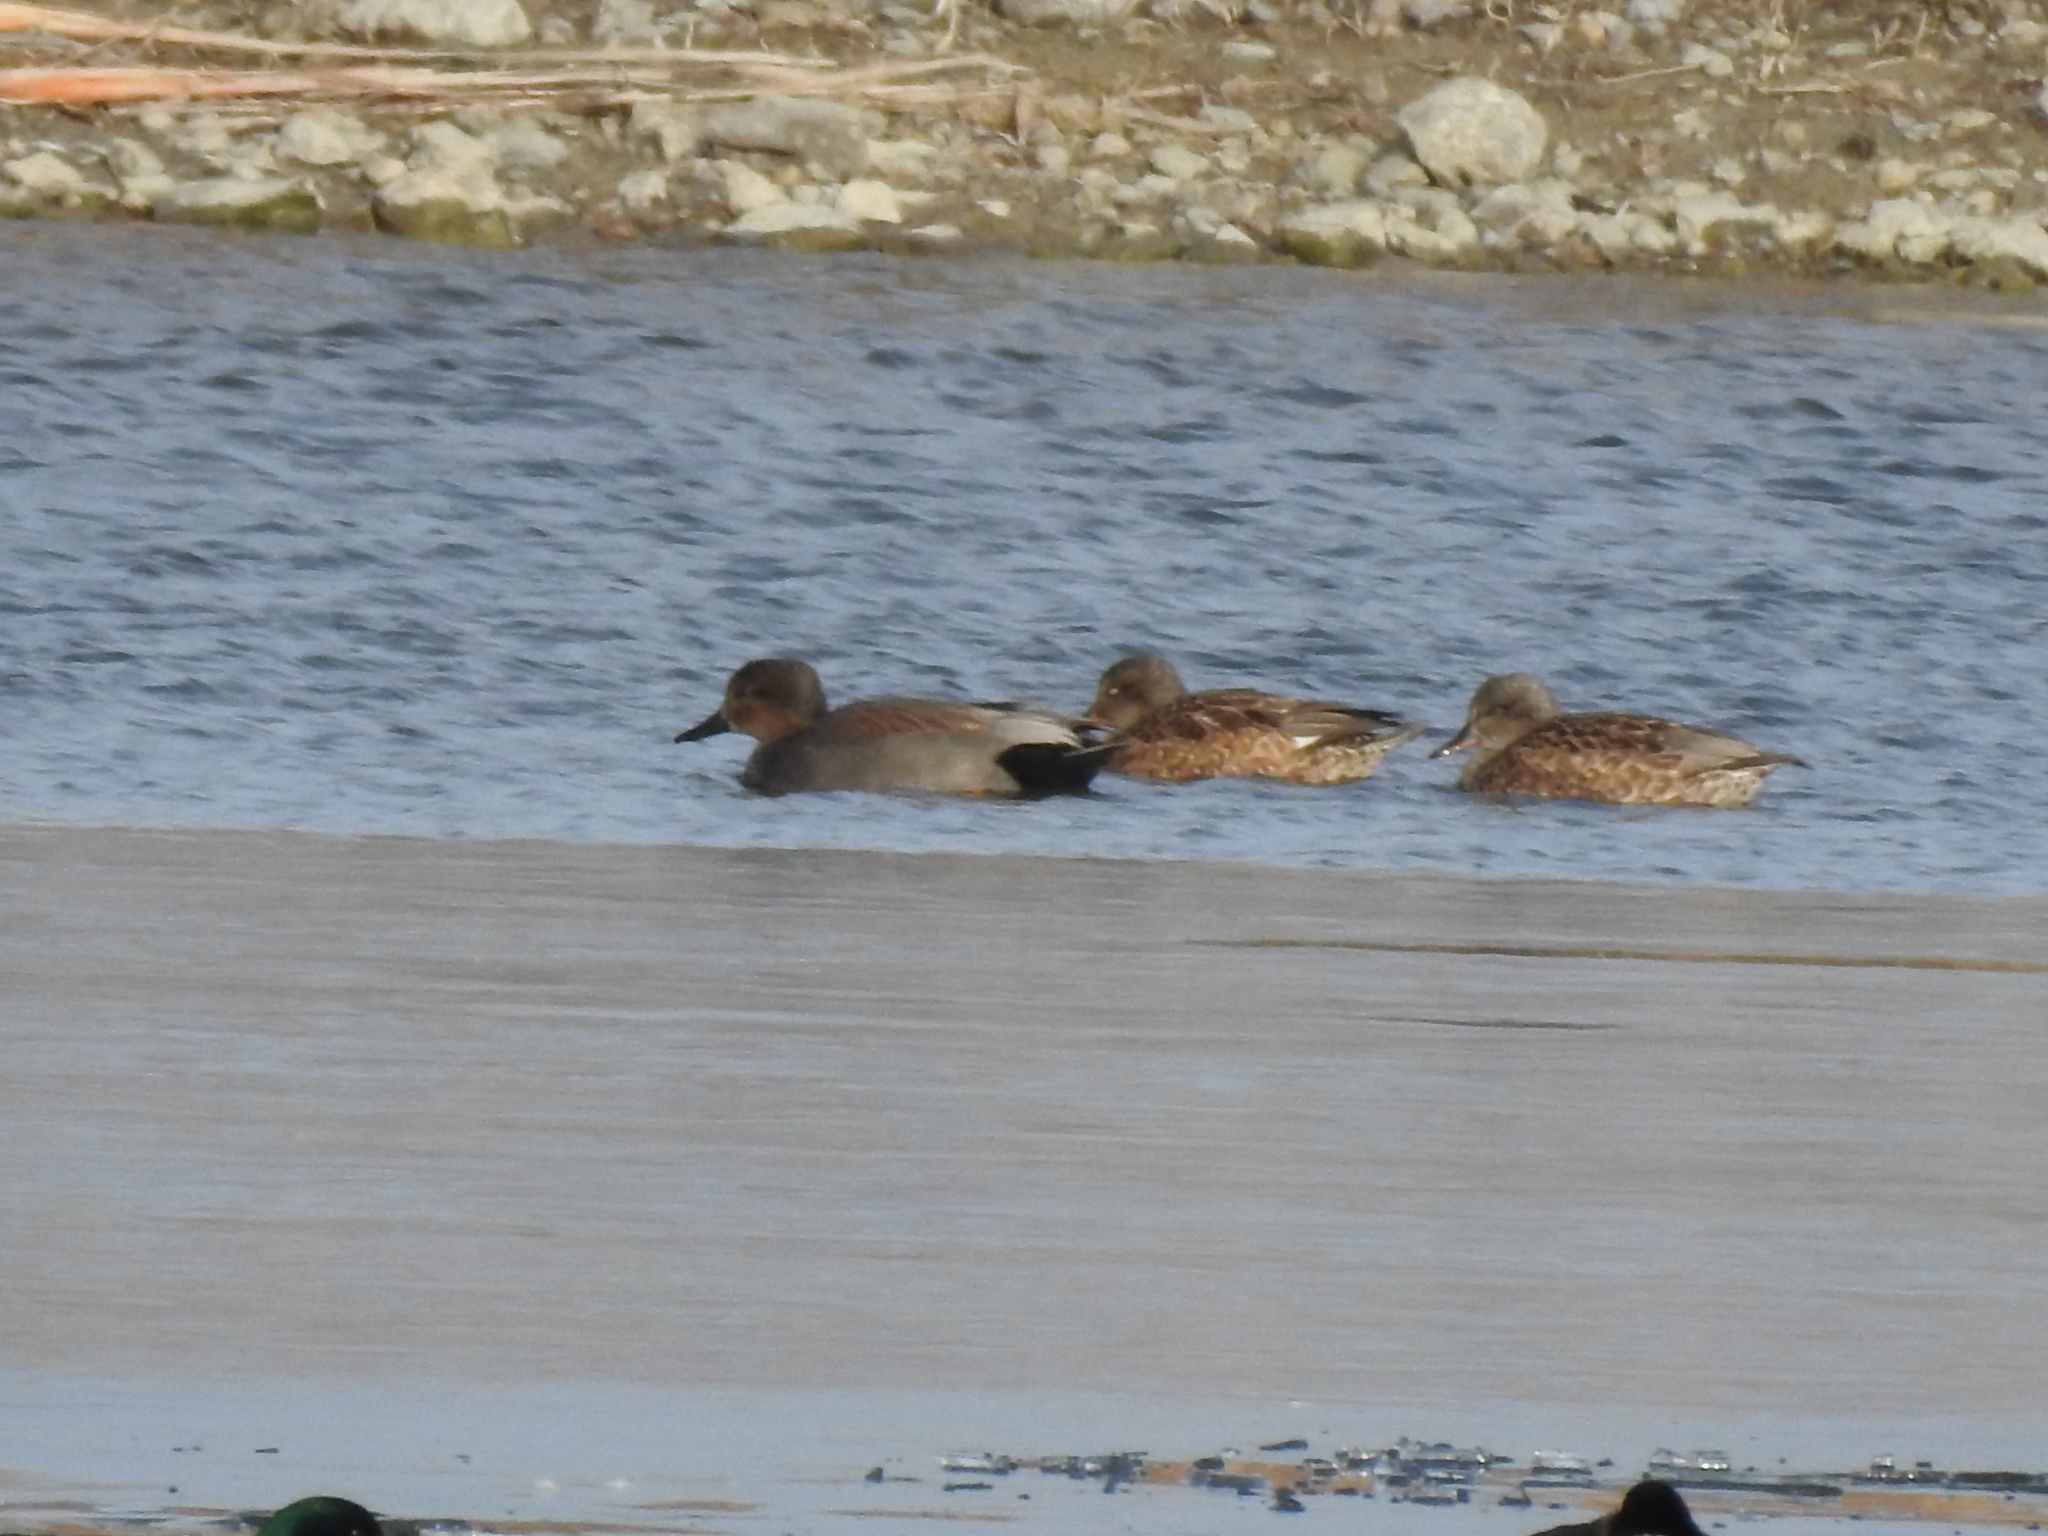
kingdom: Animalia
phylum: Chordata
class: Aves
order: Anseriformes
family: Anatidae
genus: Mareca
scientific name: Mareca strepera
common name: Gadwall
